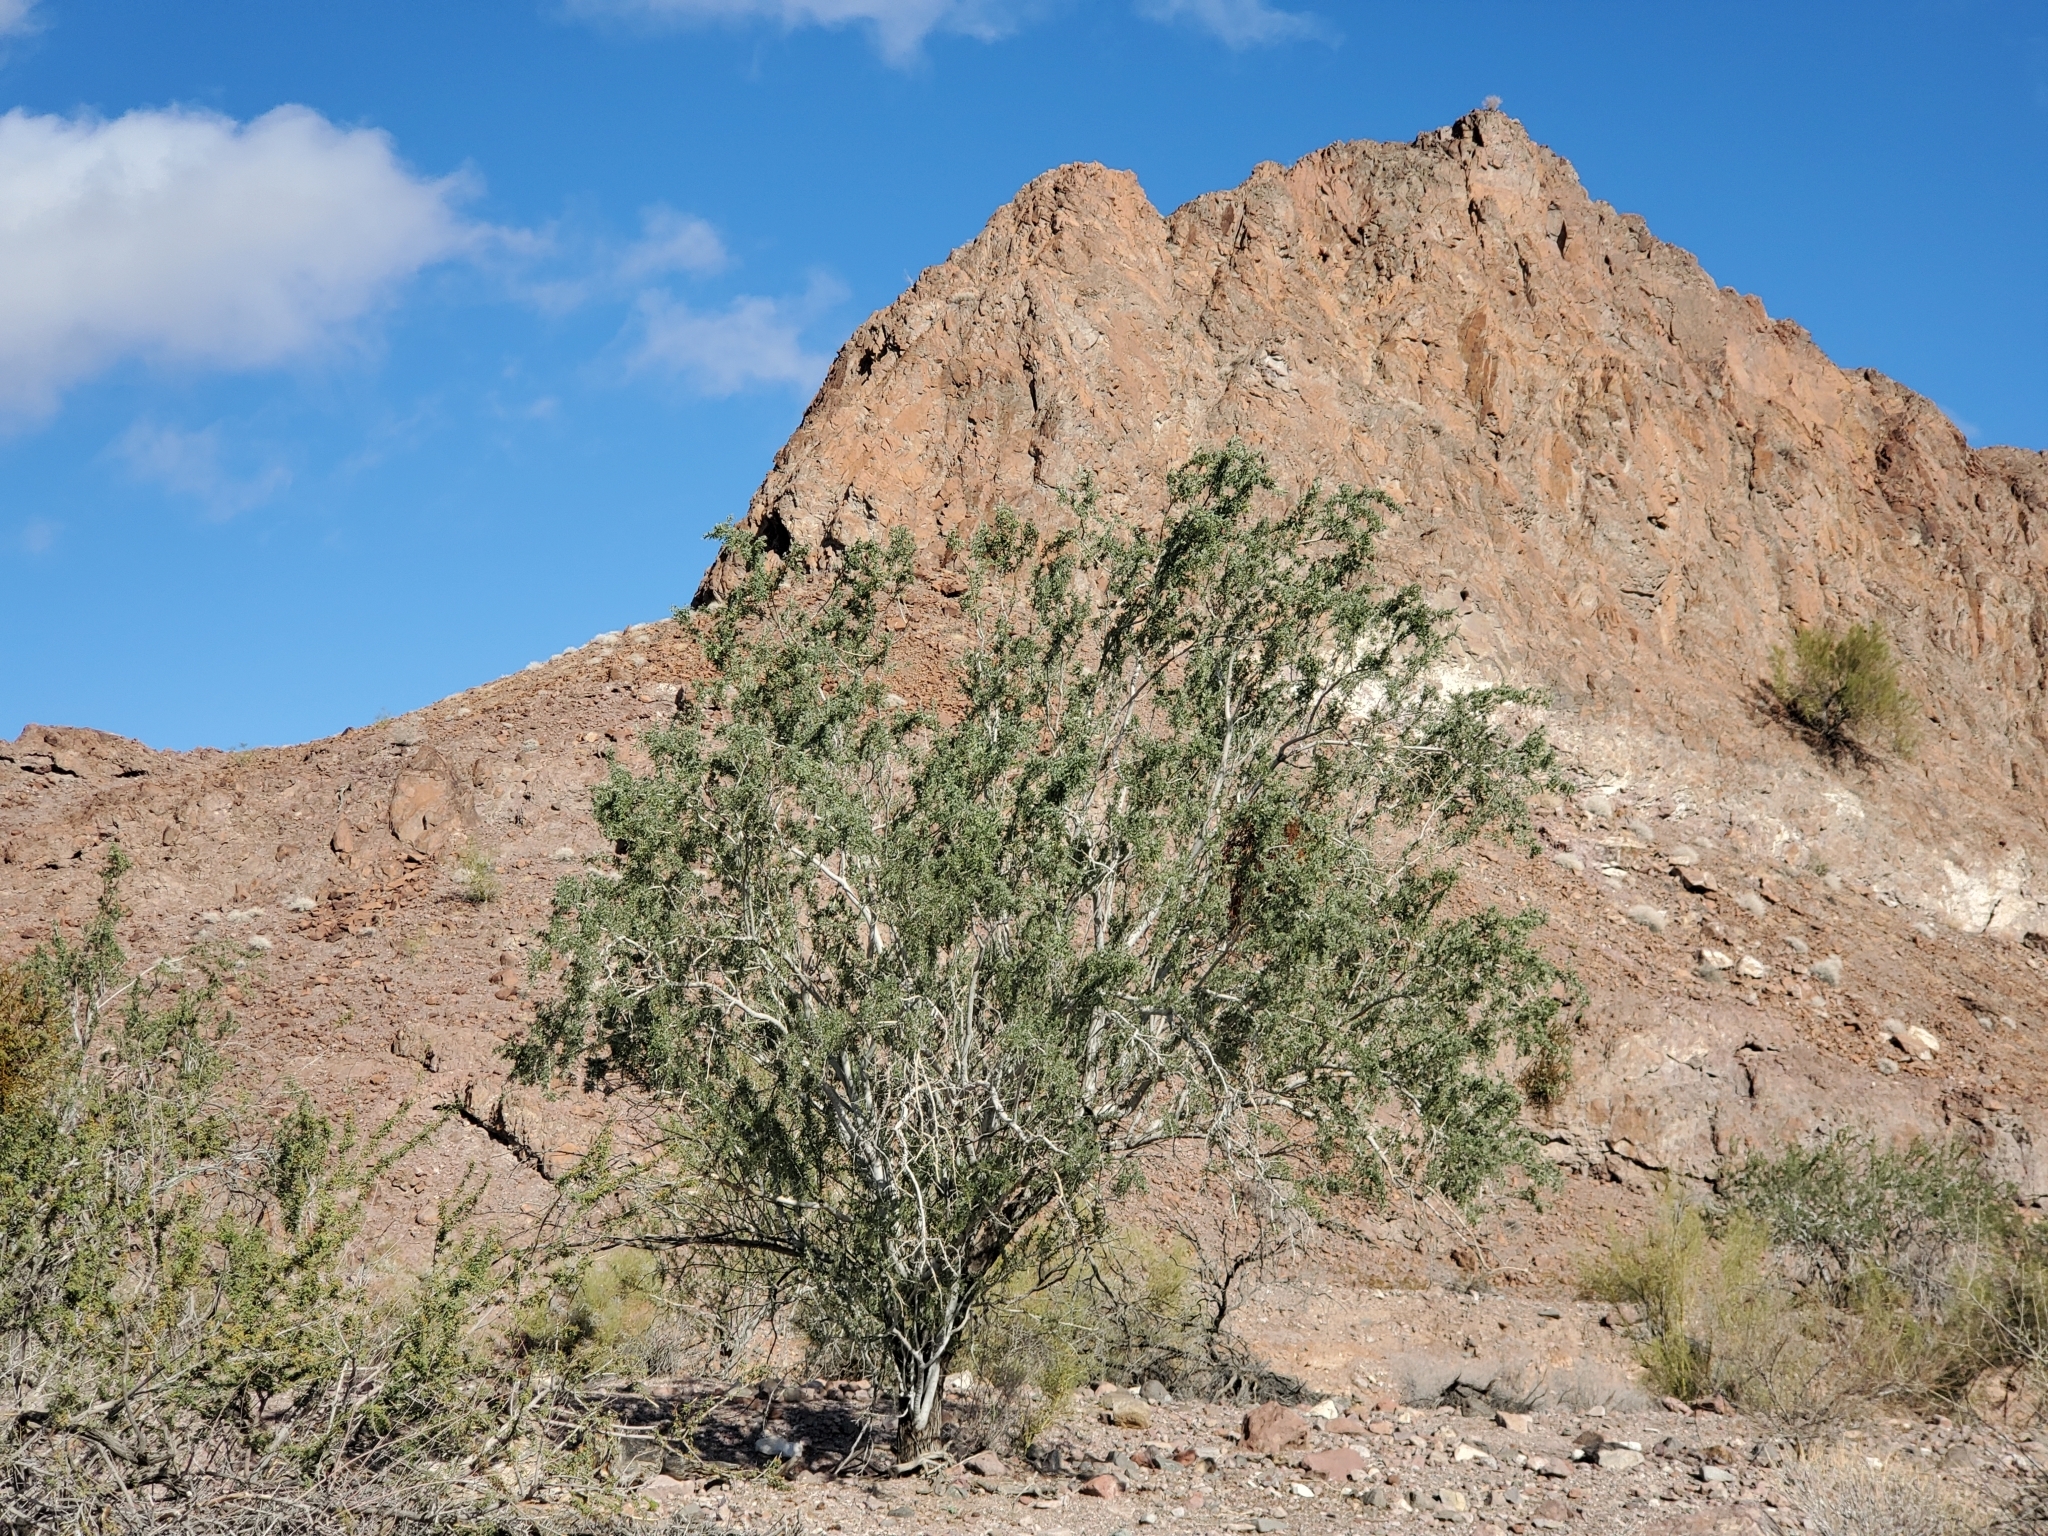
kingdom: Plantae
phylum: Tracheophyta
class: Magnoliopsida
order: Fabales
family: Fabaceae
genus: Olneya
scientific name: Olneya tesota
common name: Desert ironwood
